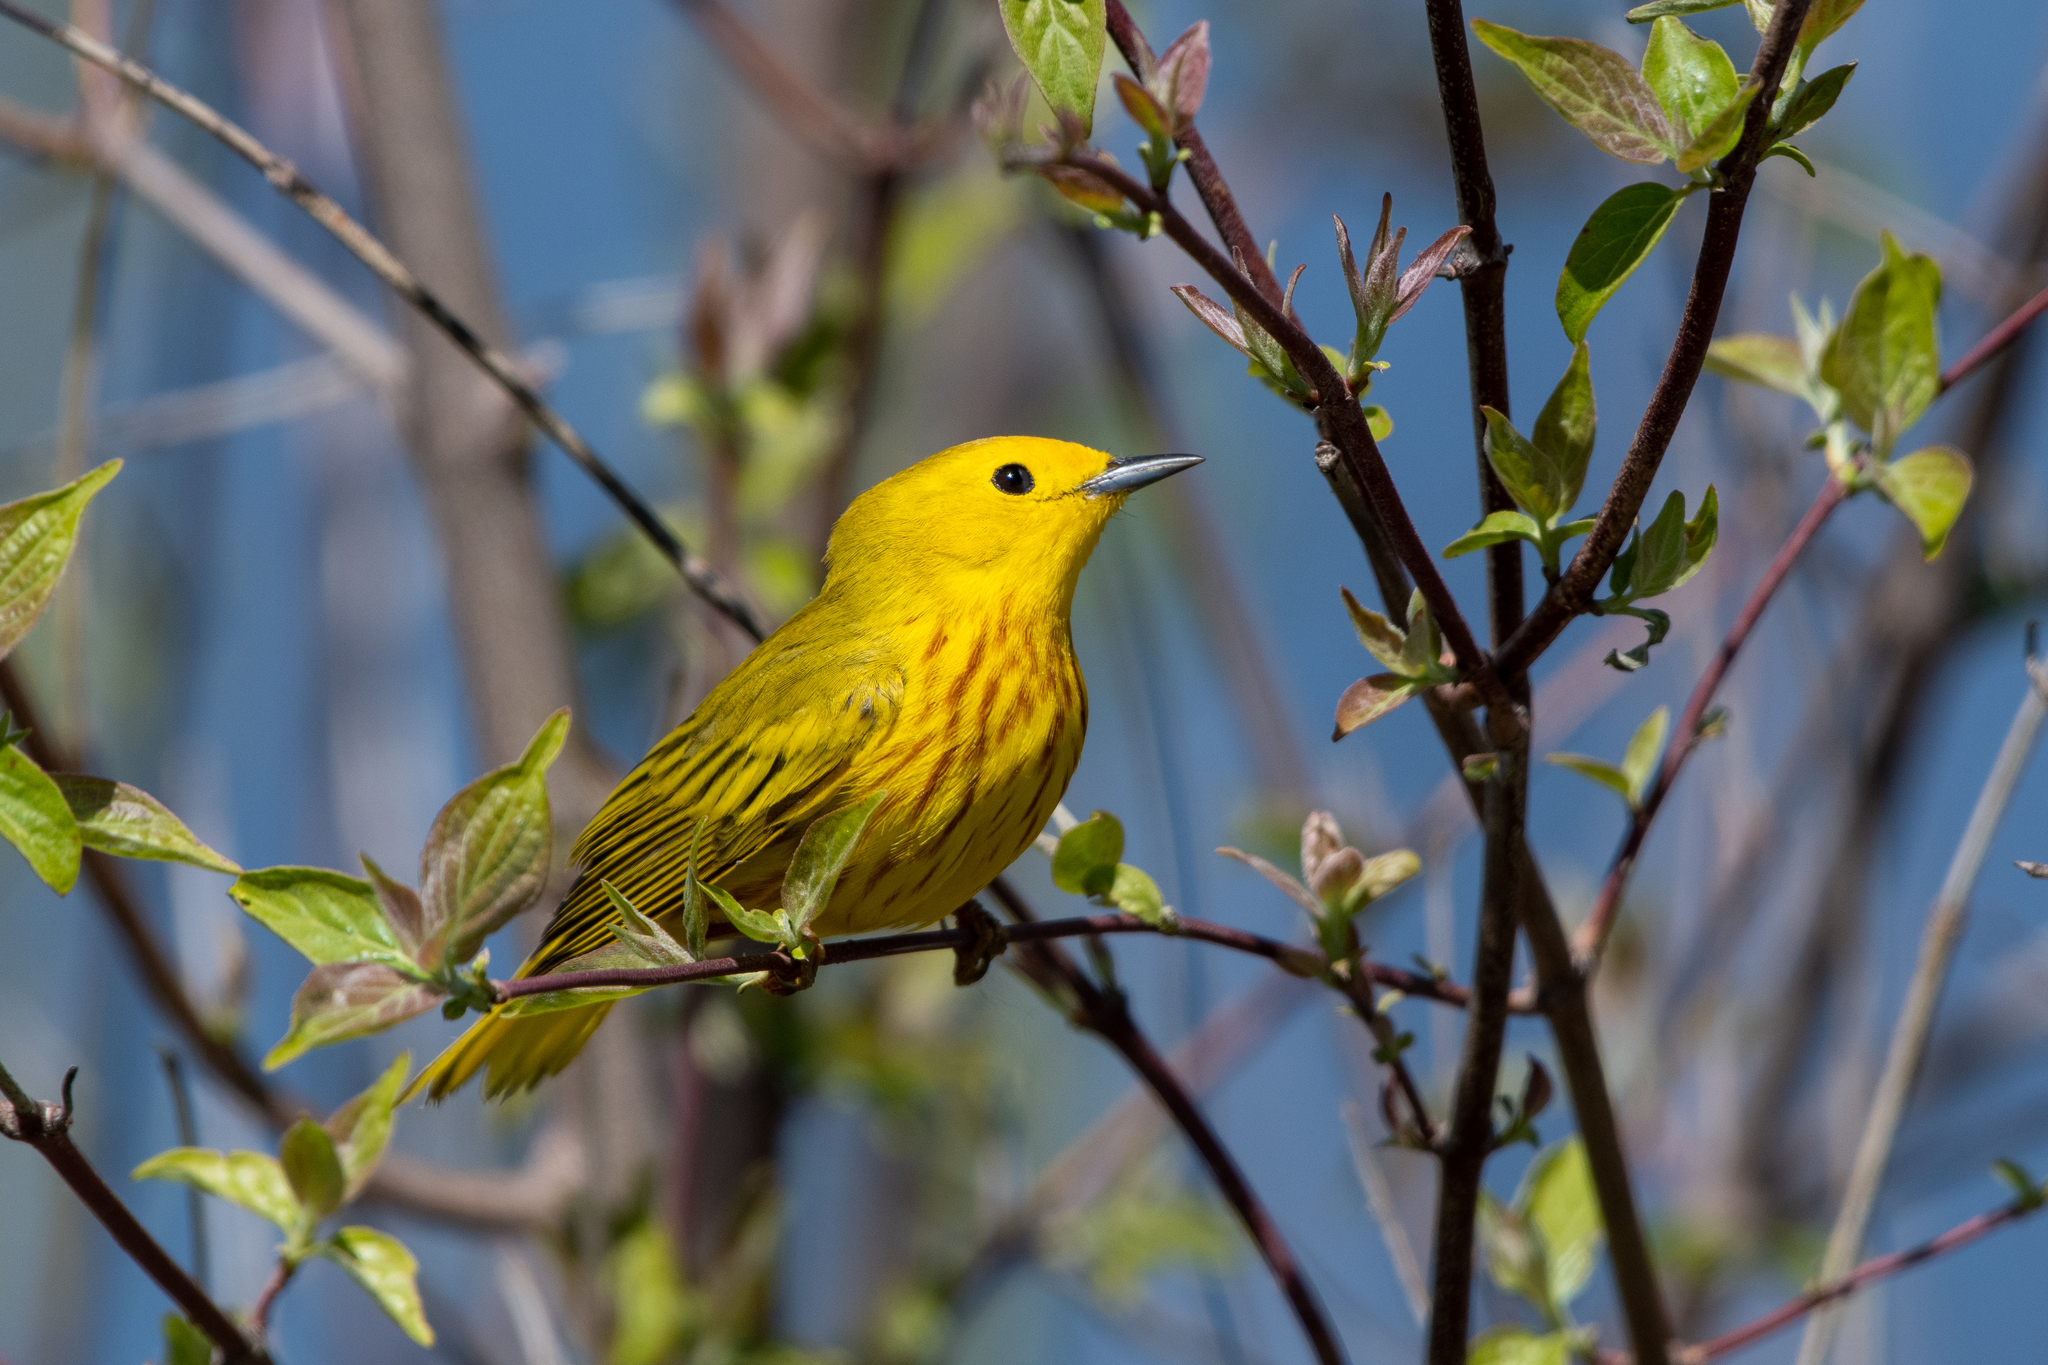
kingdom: Animalia
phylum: Chordata
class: Aves
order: Passeriformes
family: Parulidae
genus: Setophaga
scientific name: Setophaga petechia
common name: Yellow warbler
